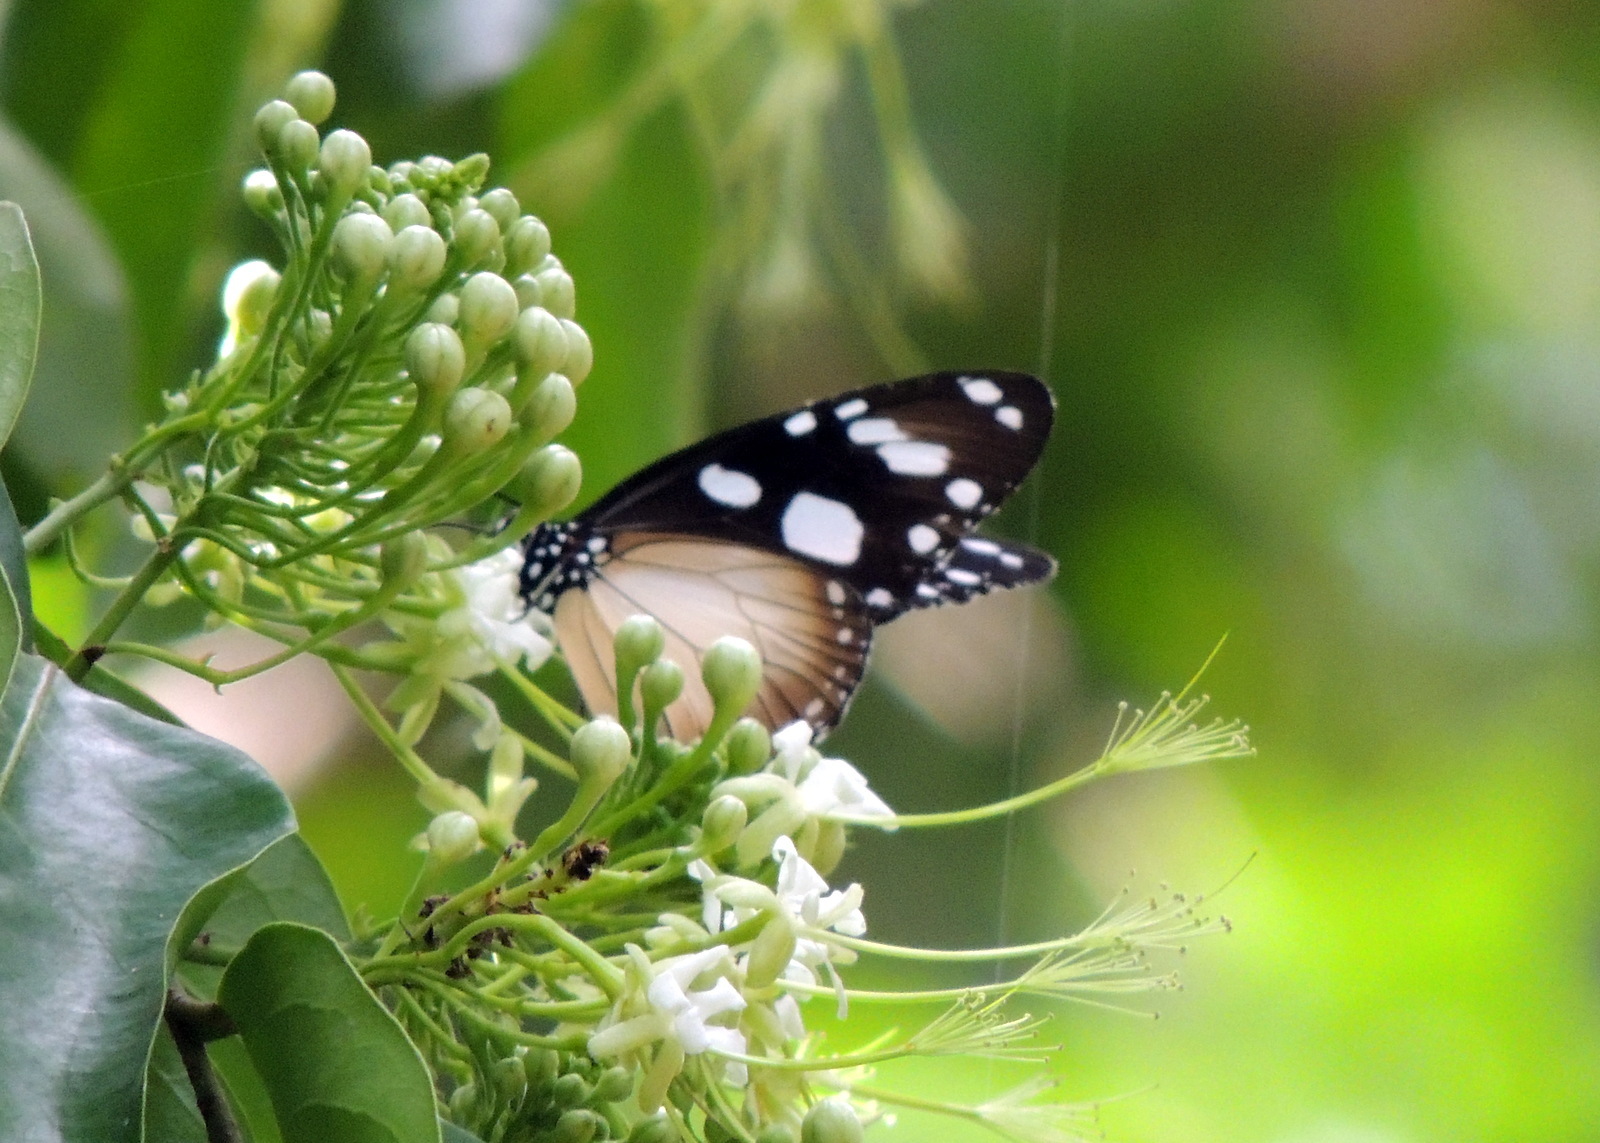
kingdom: Animalia
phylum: Arthropoda
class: Insecta
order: Lepidoptera
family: Nymphalidae
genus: Amauris
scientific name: Amauris damocles
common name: Small monk
